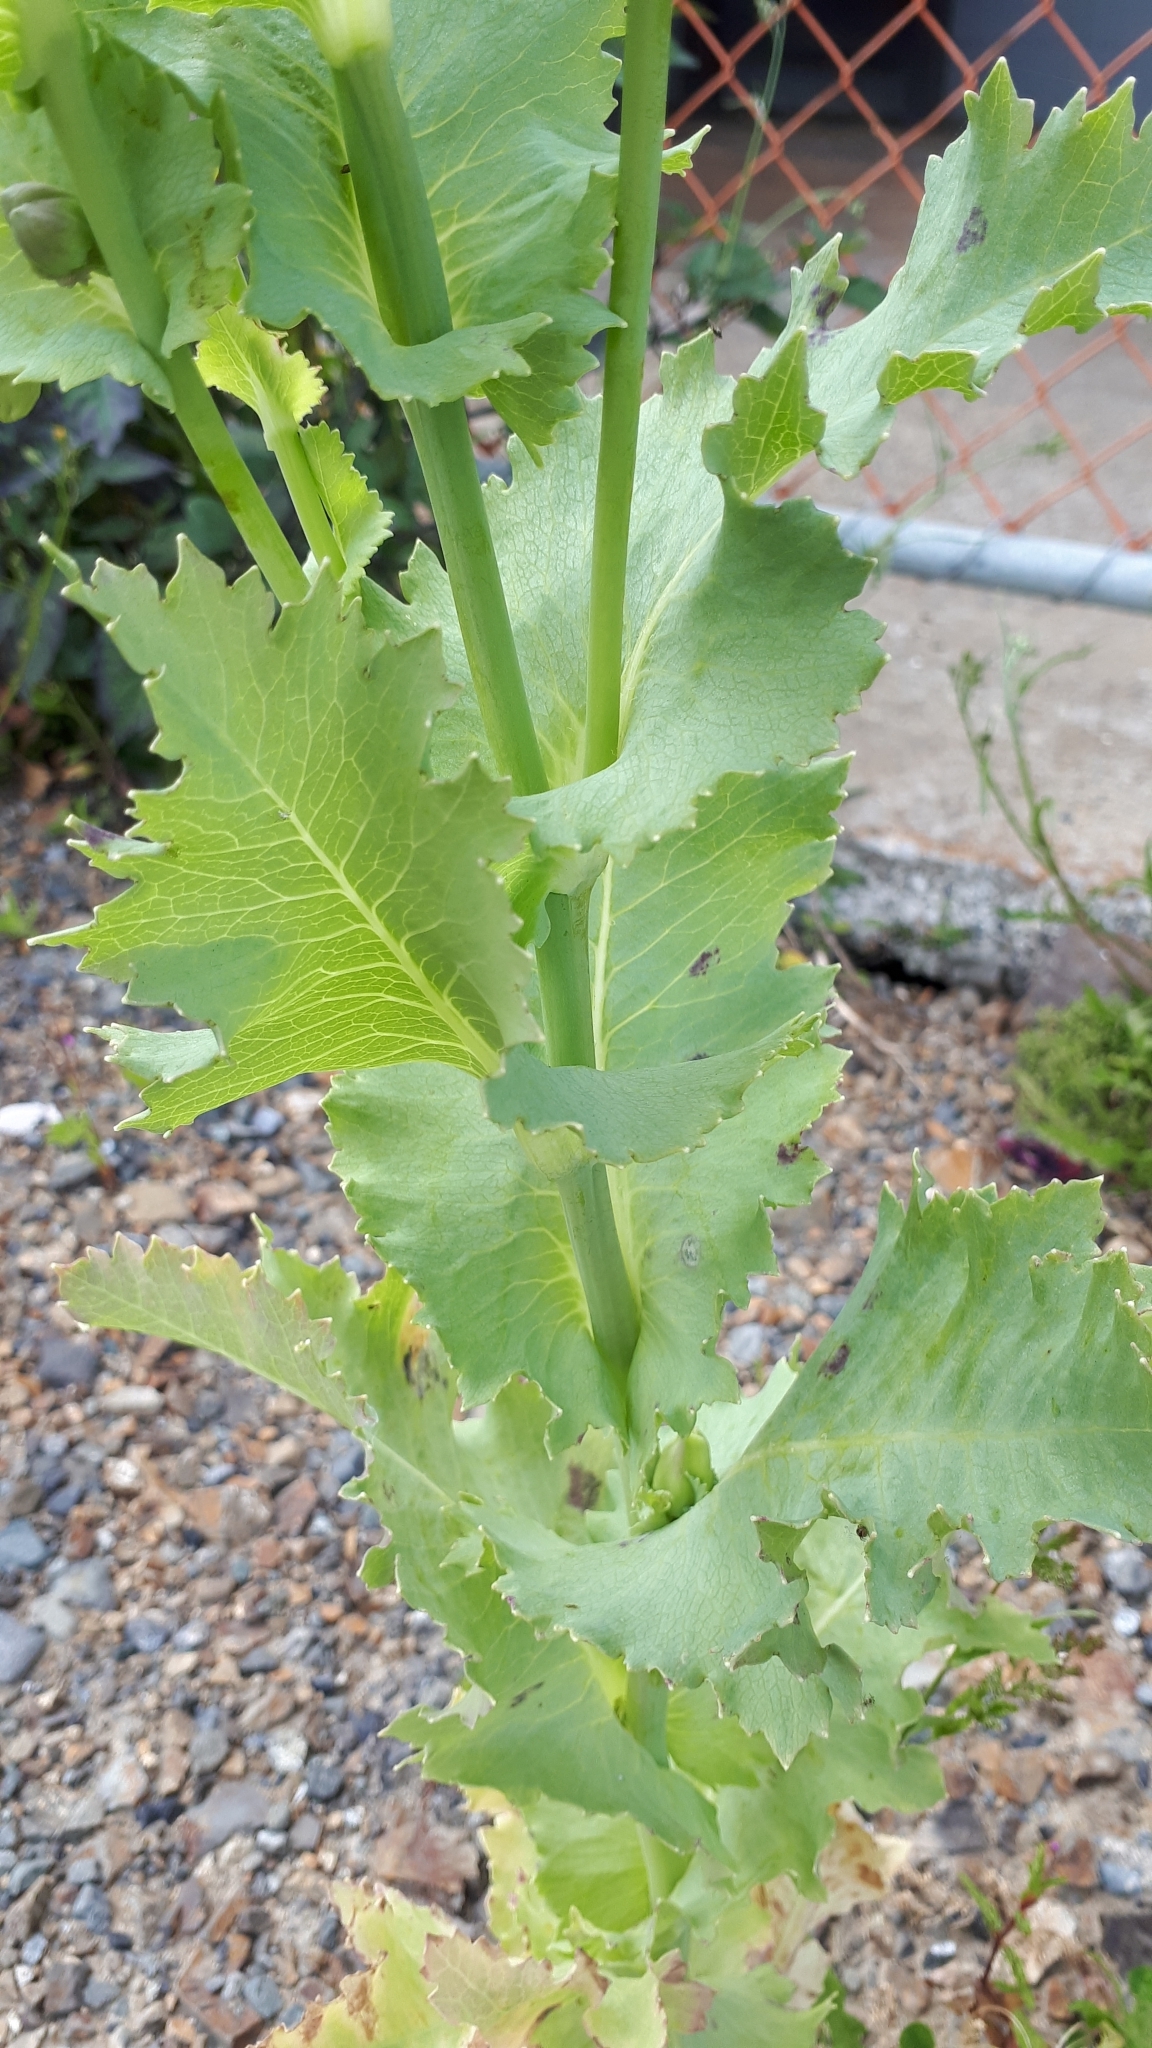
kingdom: Plantae
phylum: Tracheophyta
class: Magnoliopsida
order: Ranunculales
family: Papaveraceae
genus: Papaver
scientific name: Papaver somniferum
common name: Opium poppy
